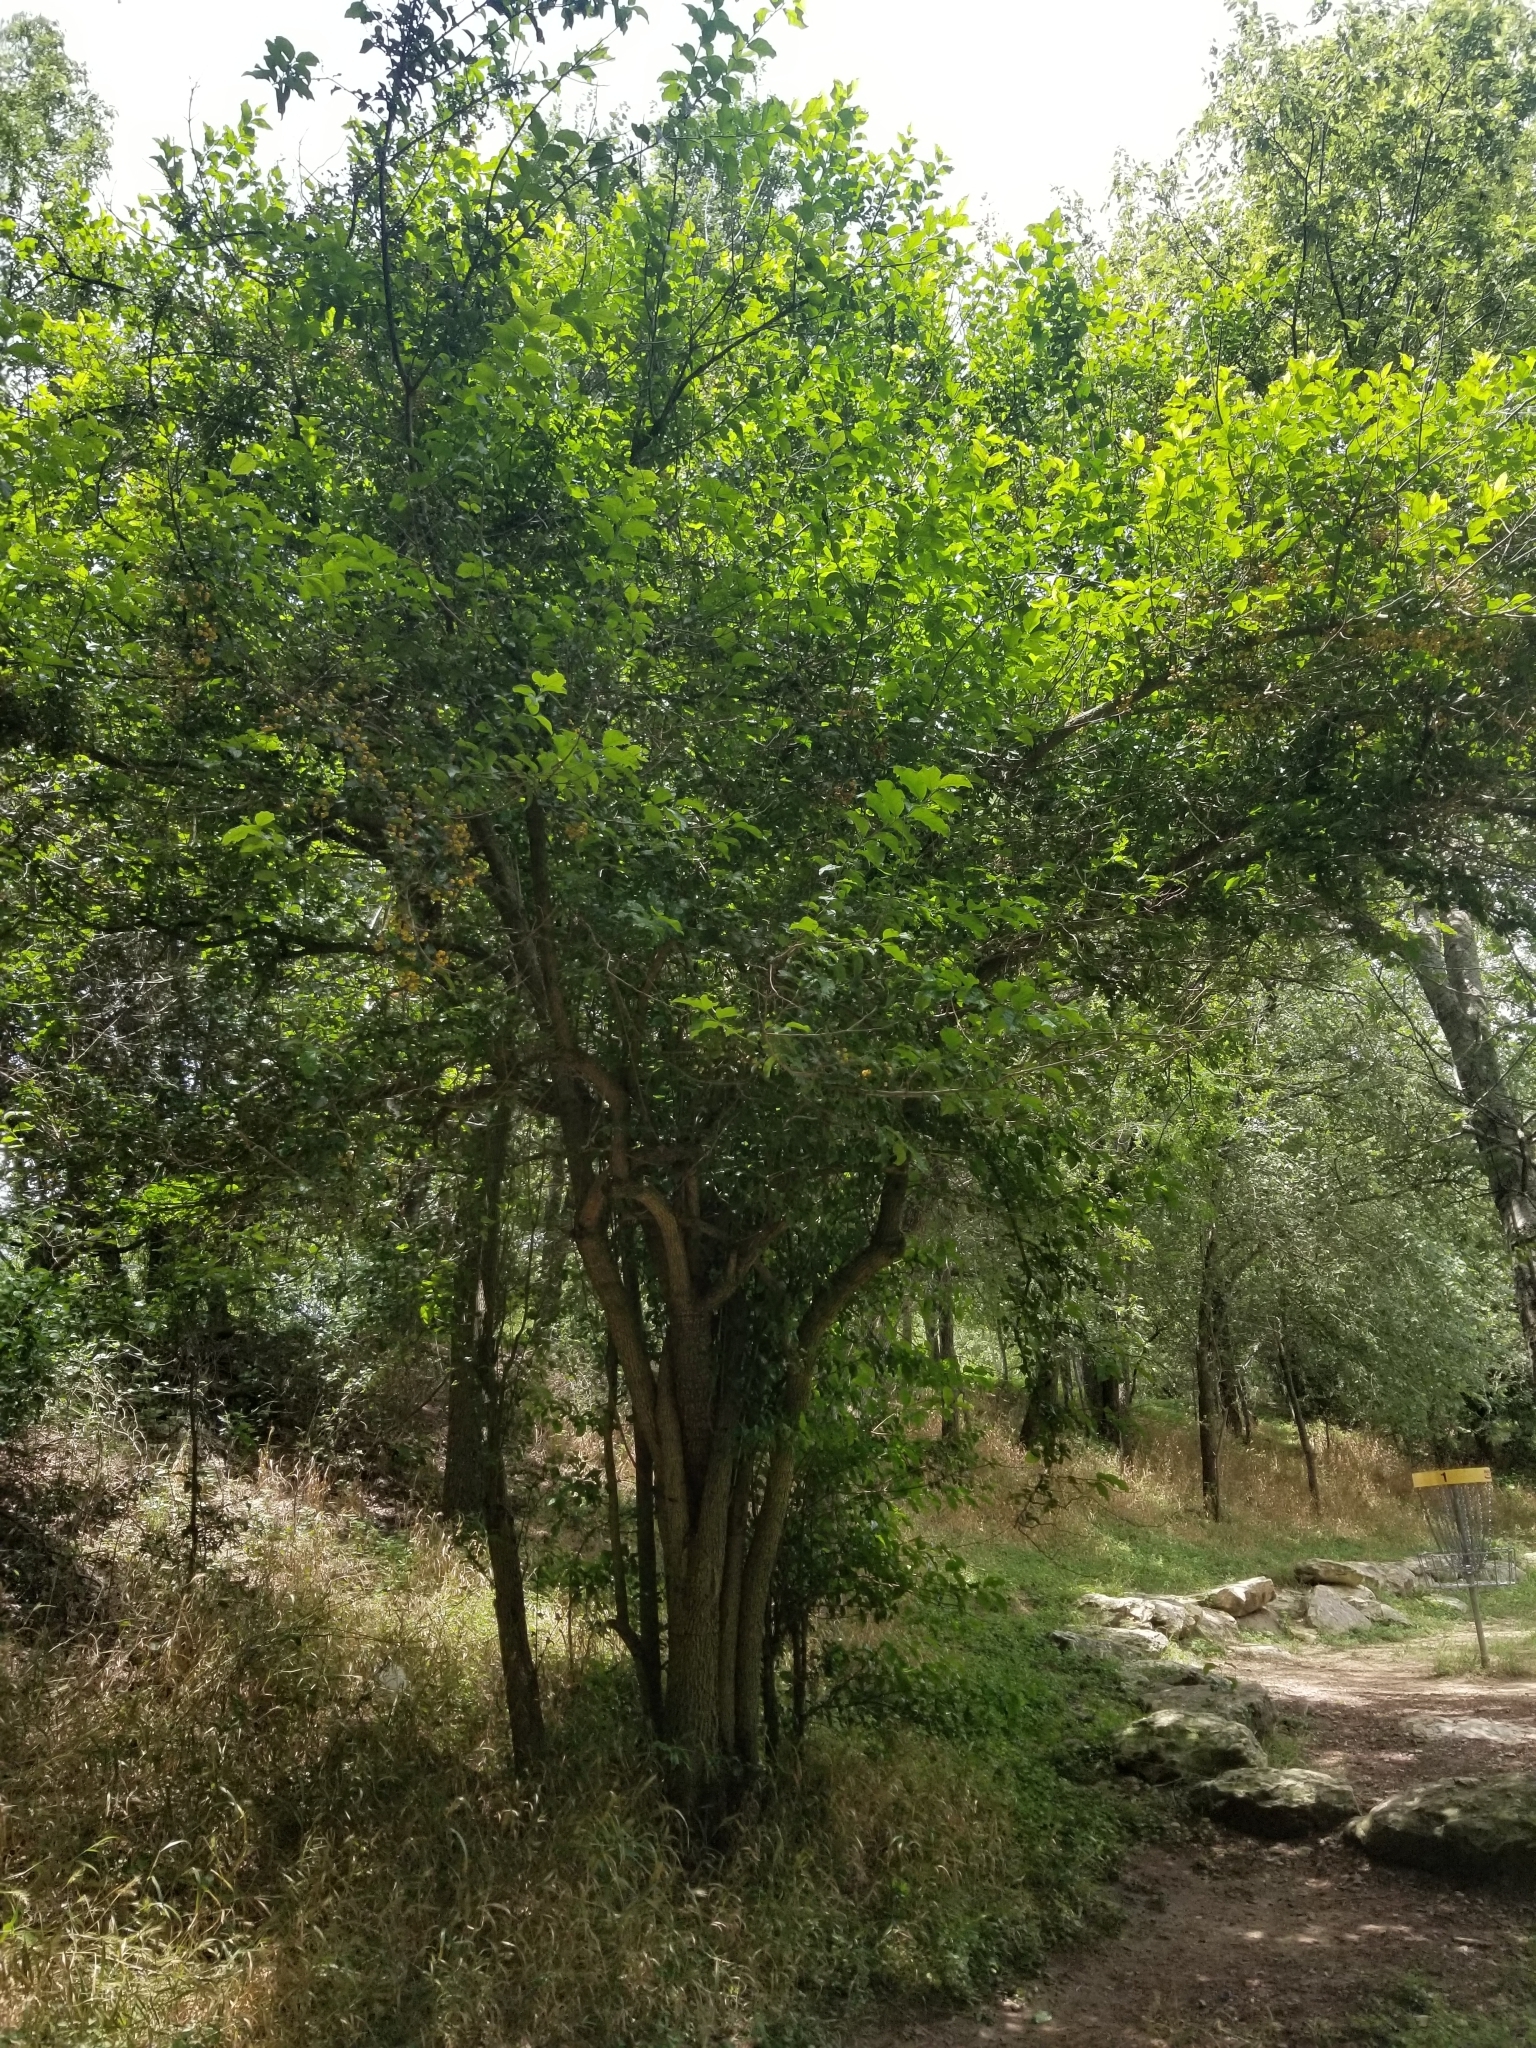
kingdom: Plantae
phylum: Tracheophyta
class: Magnoliopsida
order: Boraginales
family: Ehretiaceae
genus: Ehretia
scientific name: Ehretia anacua
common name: Sugarberry
